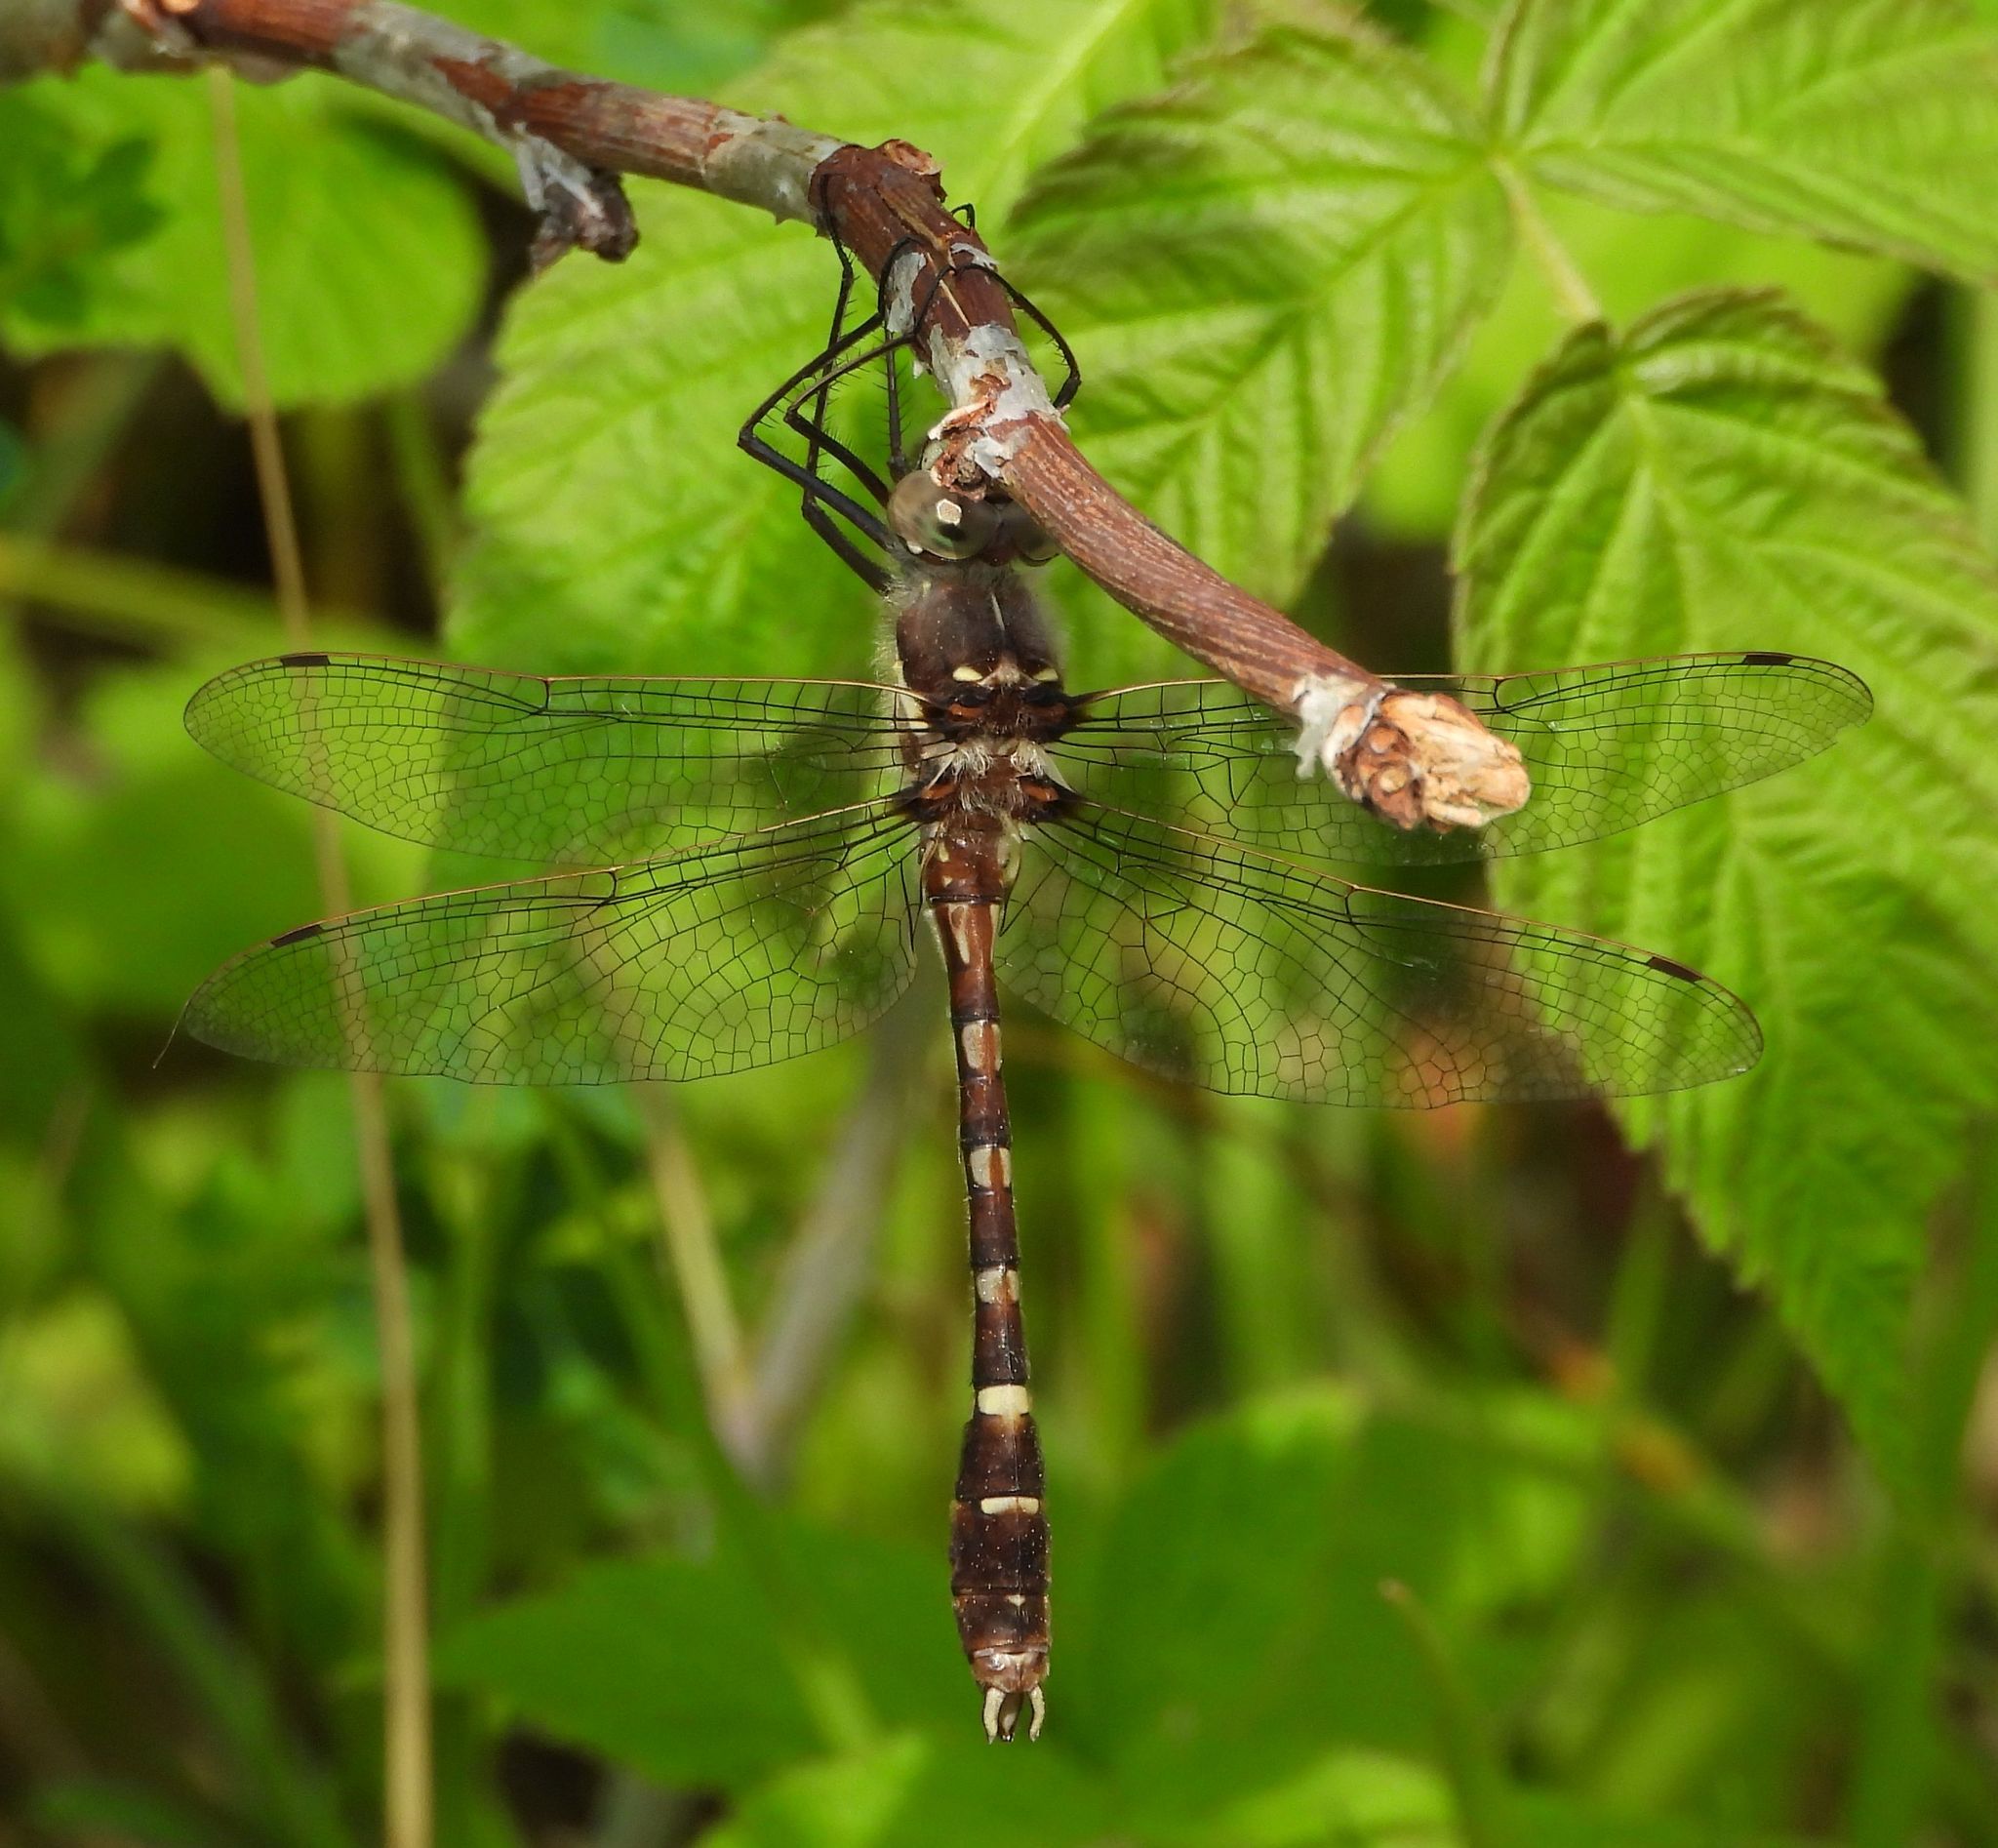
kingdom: Animalia
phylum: Arthropoda
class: Insecta
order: Odonata
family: Macromiidae
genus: Didymops
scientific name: Didymops transversa
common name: Stream cruiser
